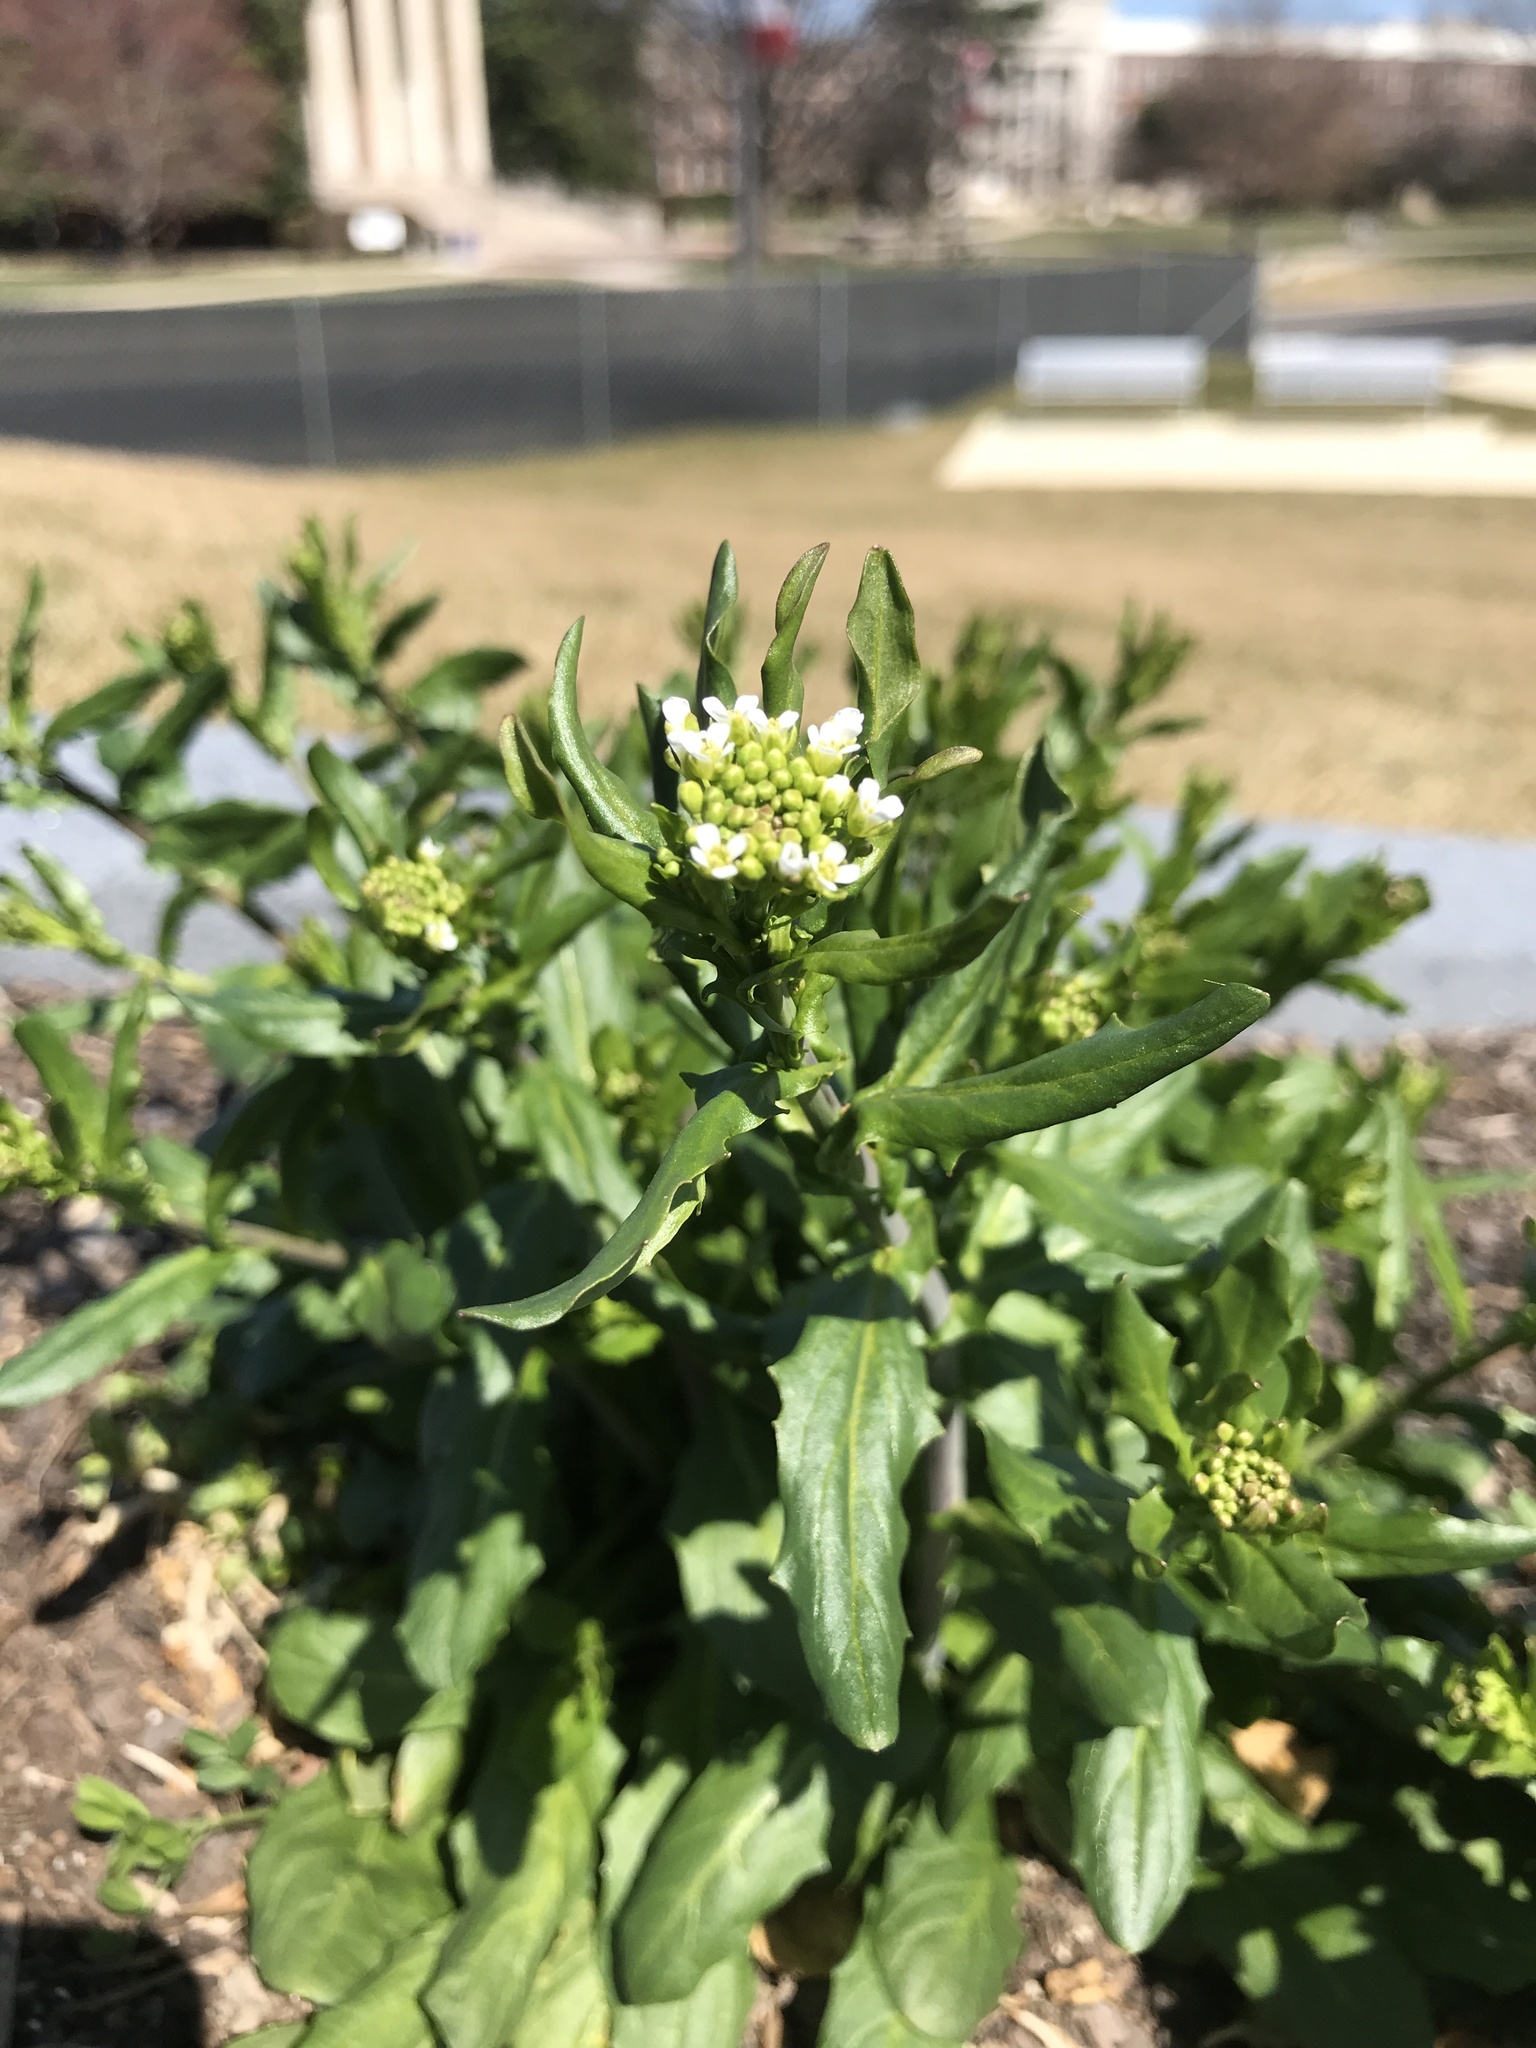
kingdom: Plantae
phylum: Tracheophyta
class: Magnoliopsida
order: Brassicales
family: Brassicaceae
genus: Mummenhoffia
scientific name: Mummenhoffia alliacea
